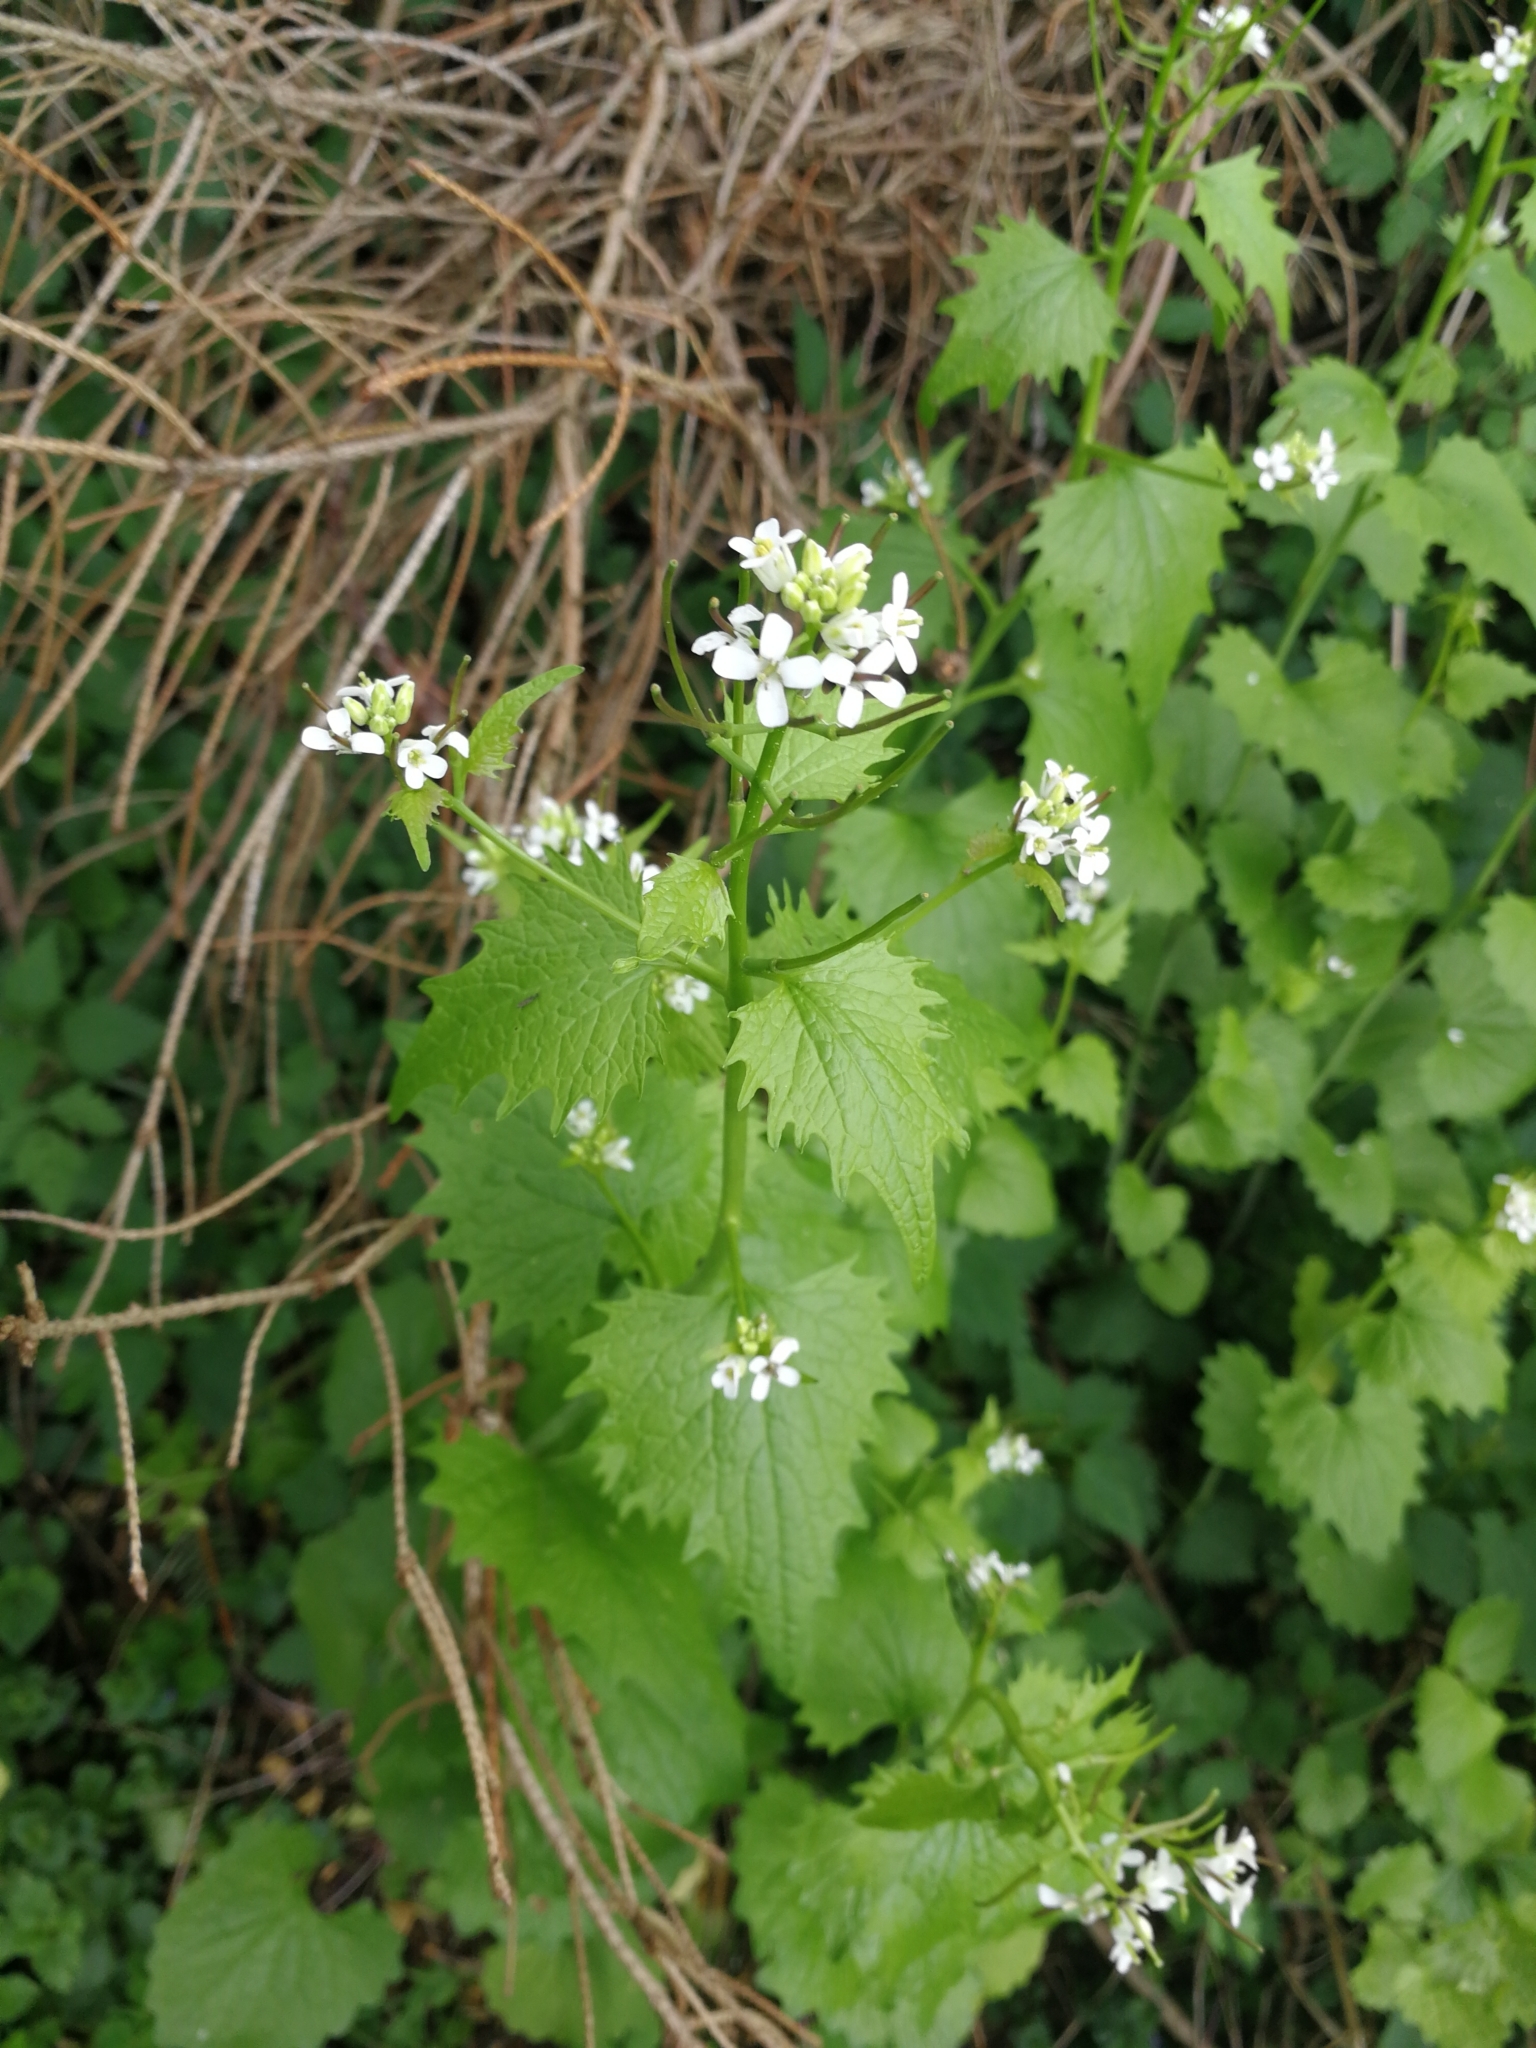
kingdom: Plantae
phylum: Tracheophyta
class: Magnoliopsida
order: Brassicales
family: Brassicaceae
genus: Alliaria
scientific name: Alliaria petiolata
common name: Garlic mustard
